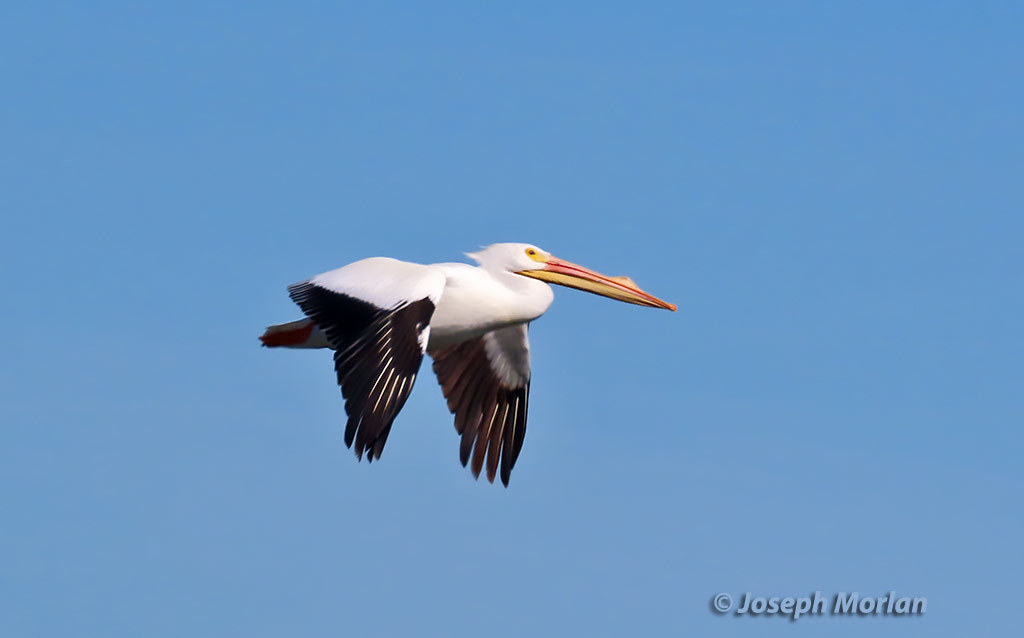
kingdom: Animalia
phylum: Chordata
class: Aves
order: Pelecaniformes
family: Pelecanidae
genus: Pelecanus
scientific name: Pelecanus erythrorhynchos
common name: American white pelican
